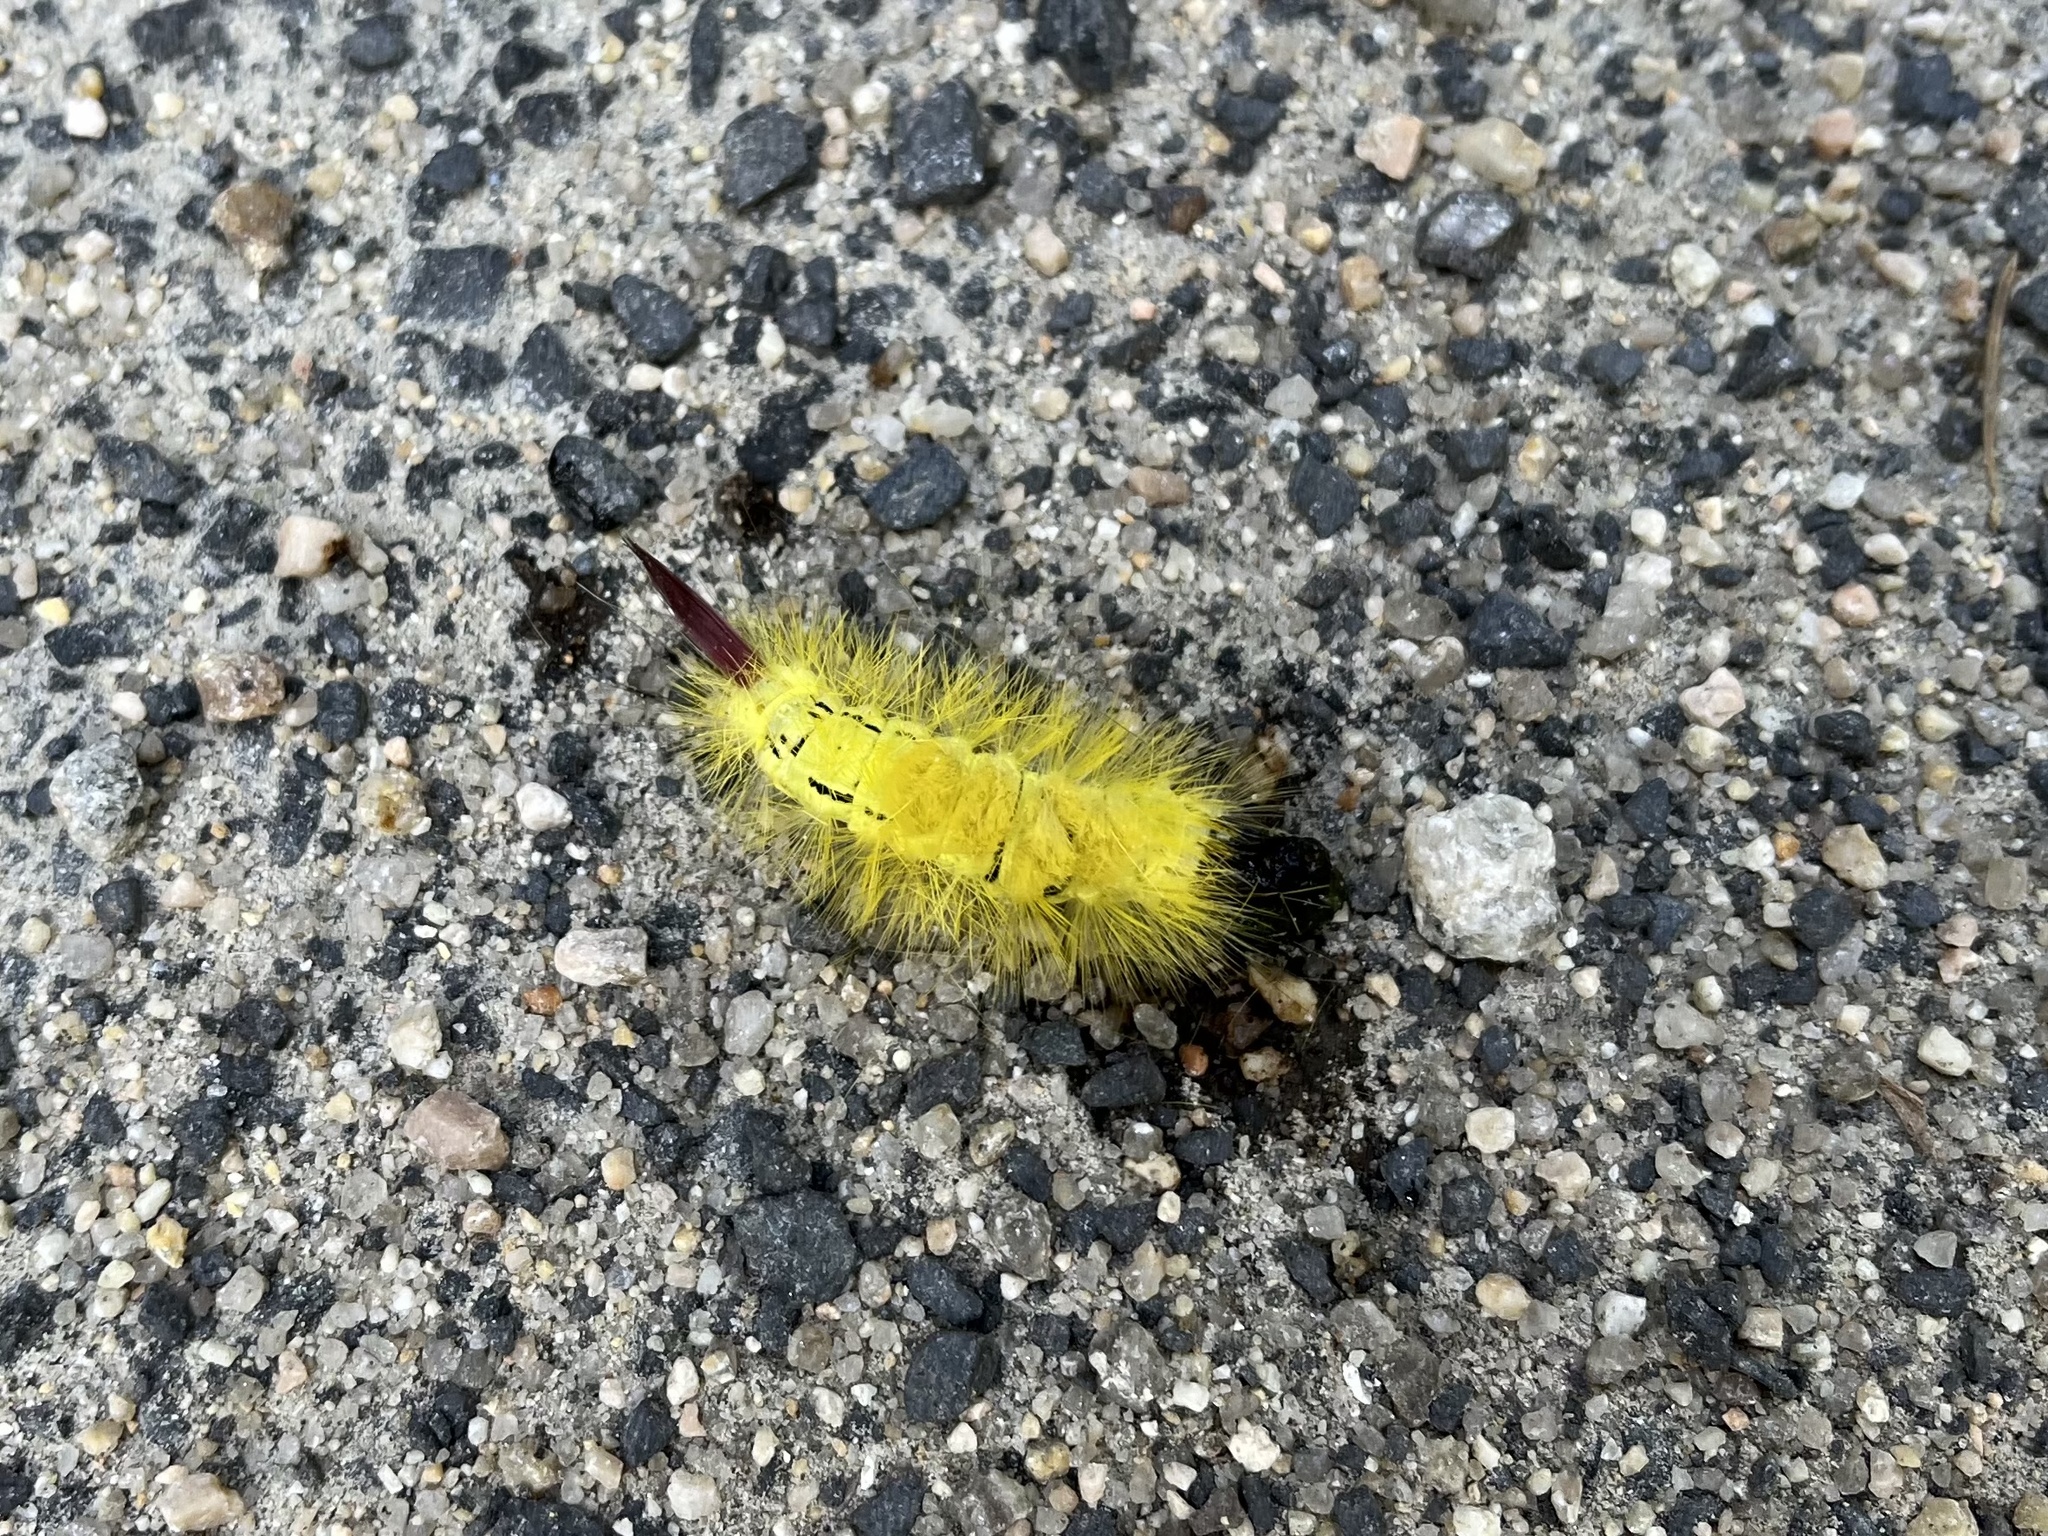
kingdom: Animalia
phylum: Arthropoda
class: Insecta
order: Lepidoptera
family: Erebidae
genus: Calliteara
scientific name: Calliteara pudibunda
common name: Pale tussock
